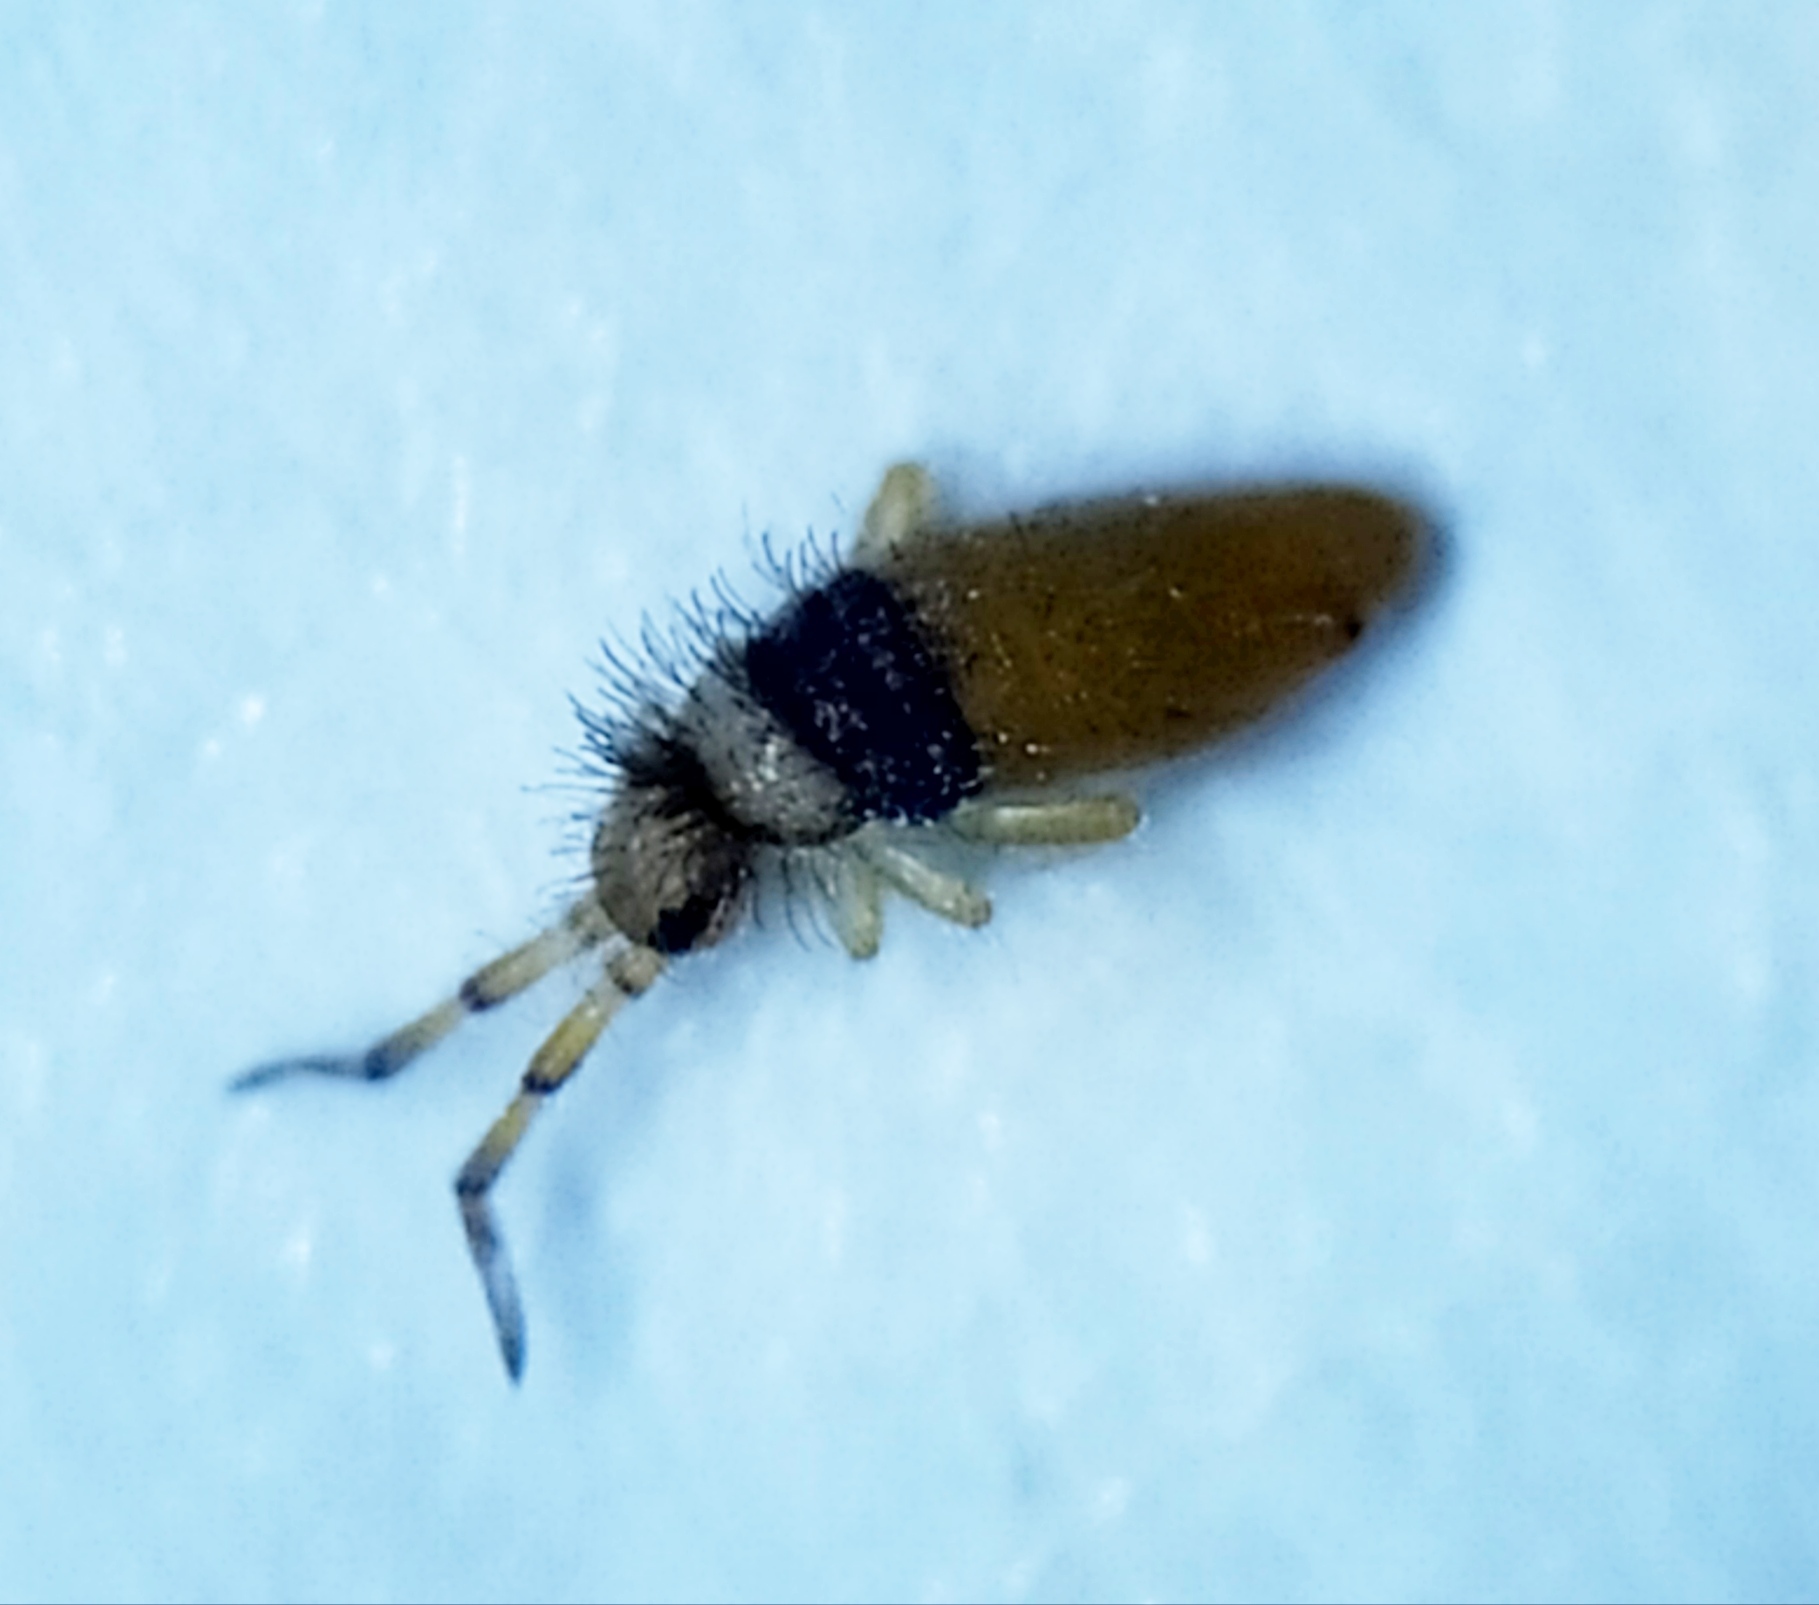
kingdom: Animalia
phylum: Arthropoda
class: Collembola
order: Entomobryomorpha
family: Entomobryidae
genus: Entomobrya
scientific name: Entomobrya nigrocincta
